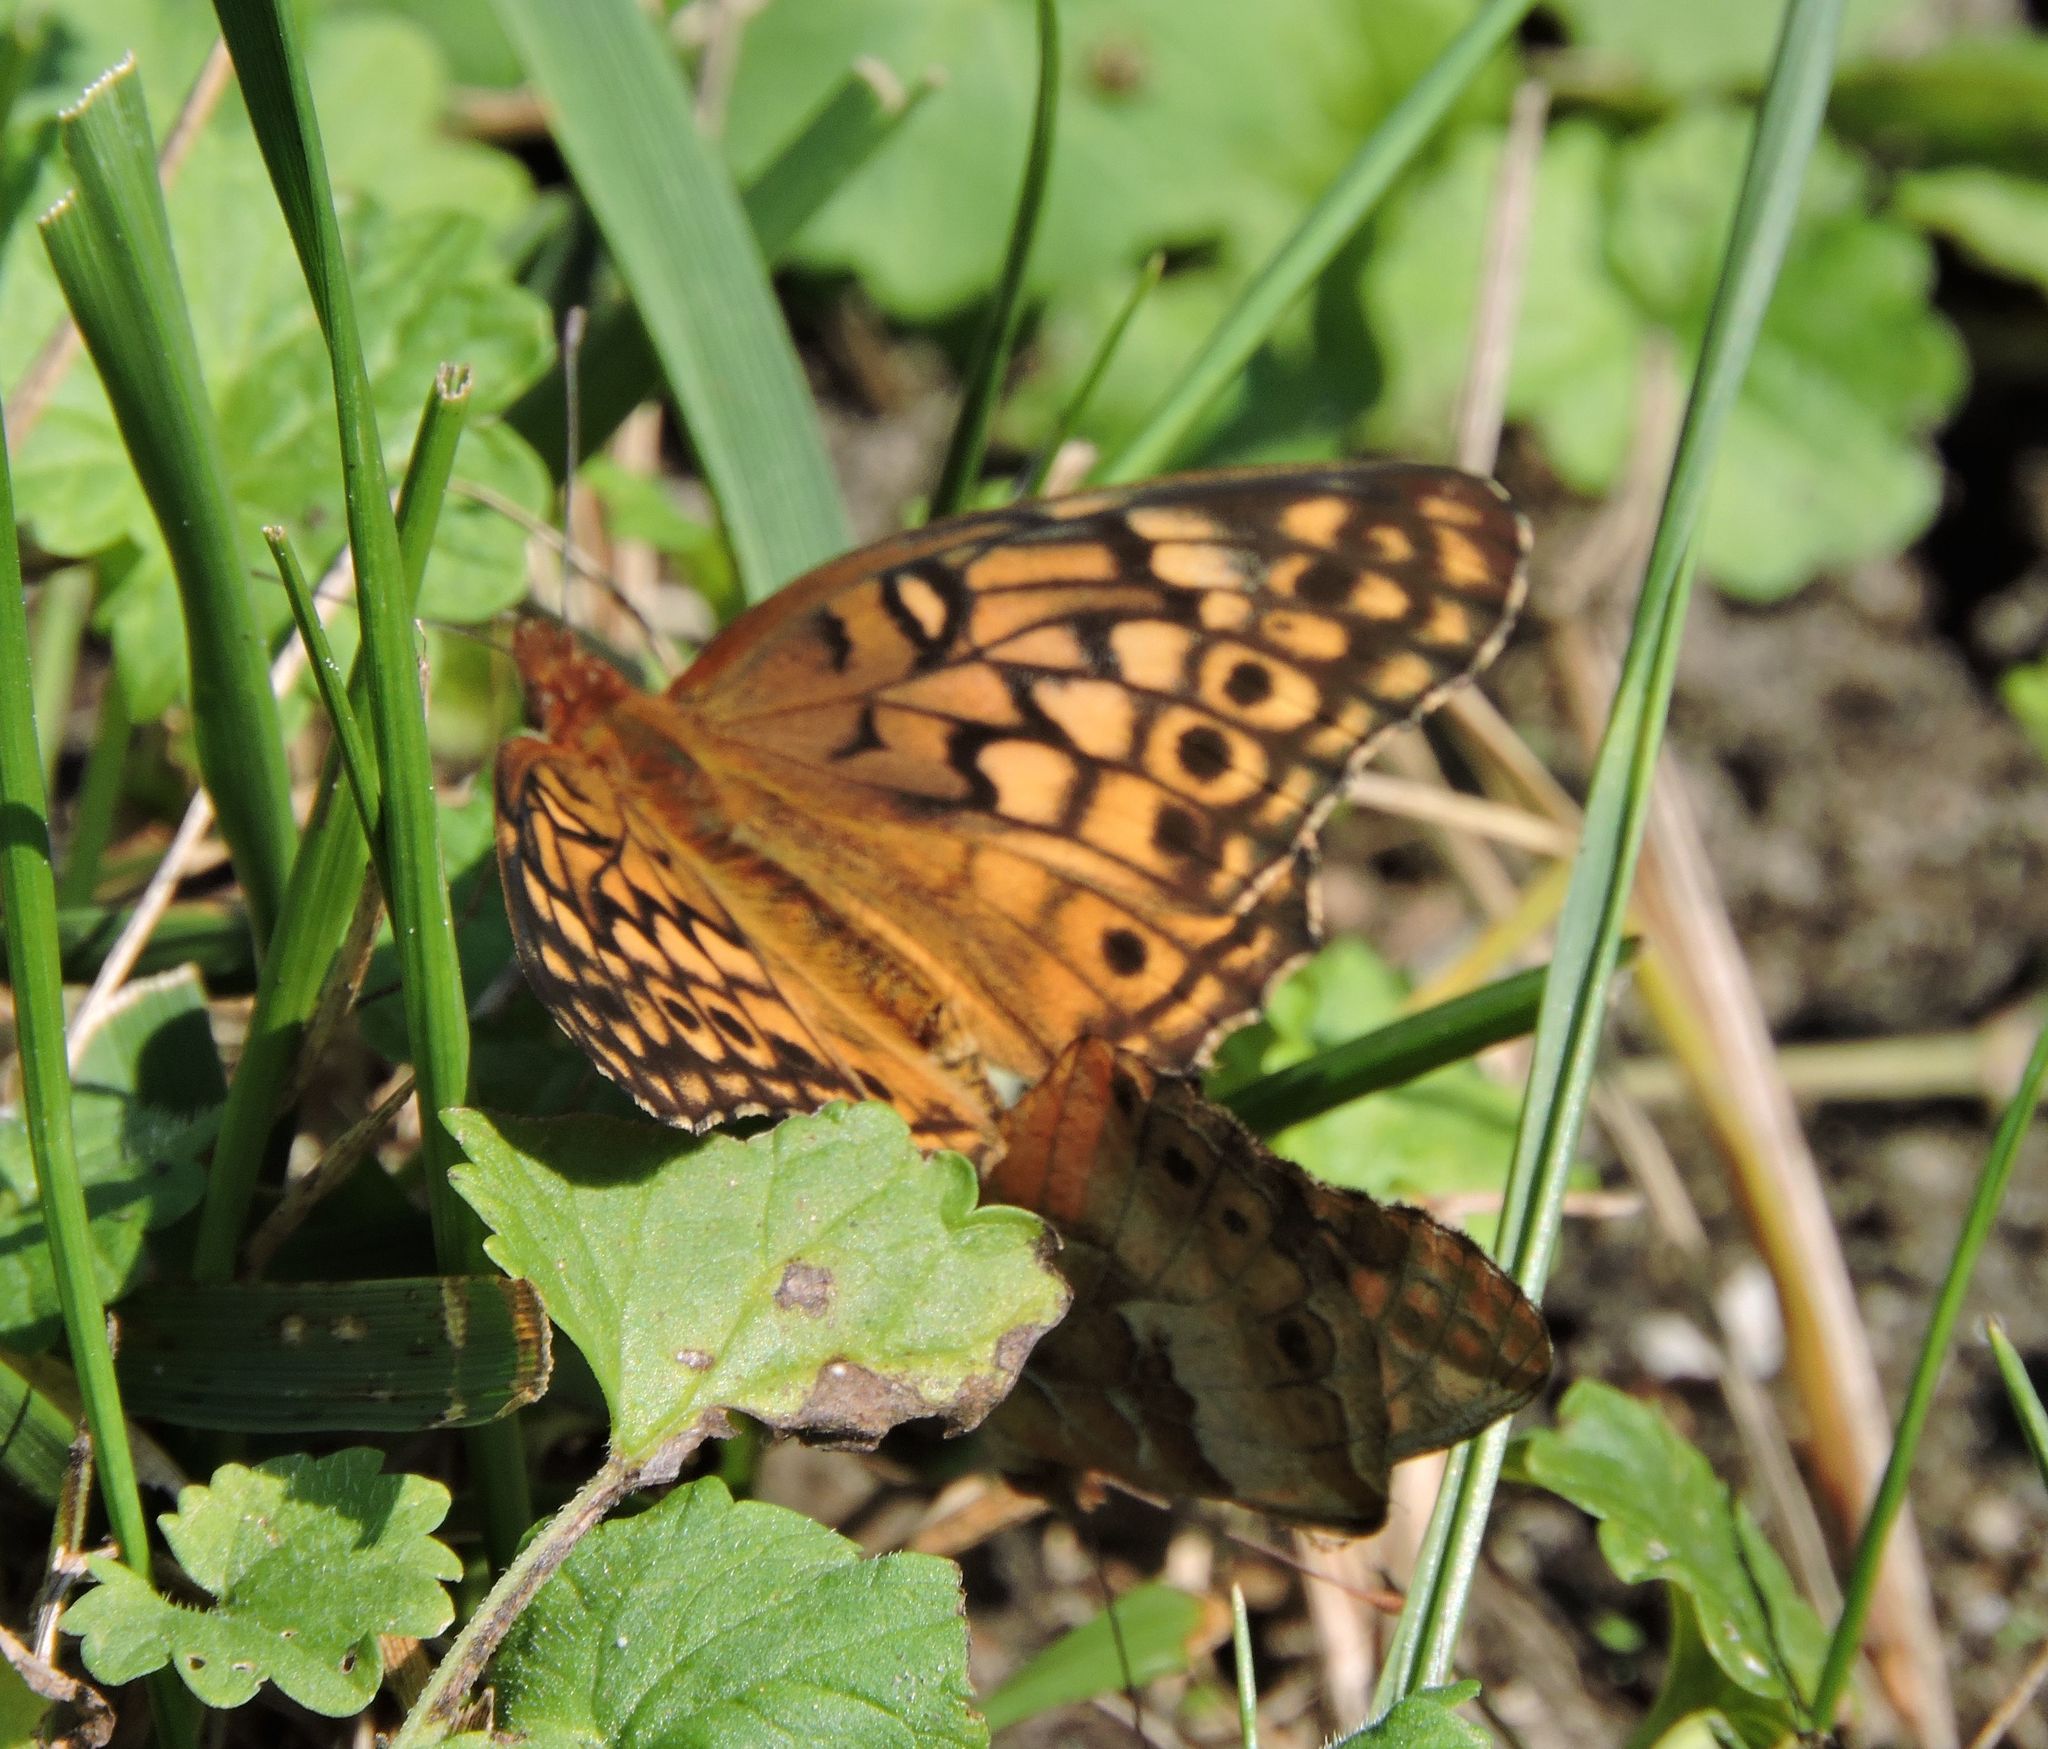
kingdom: Animalia
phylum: Arthropoda
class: Insecta
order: Lepidoptera
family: Nymphalidae
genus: Euptoieta
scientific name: Euptoieta claudia
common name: Variegated fritillary
